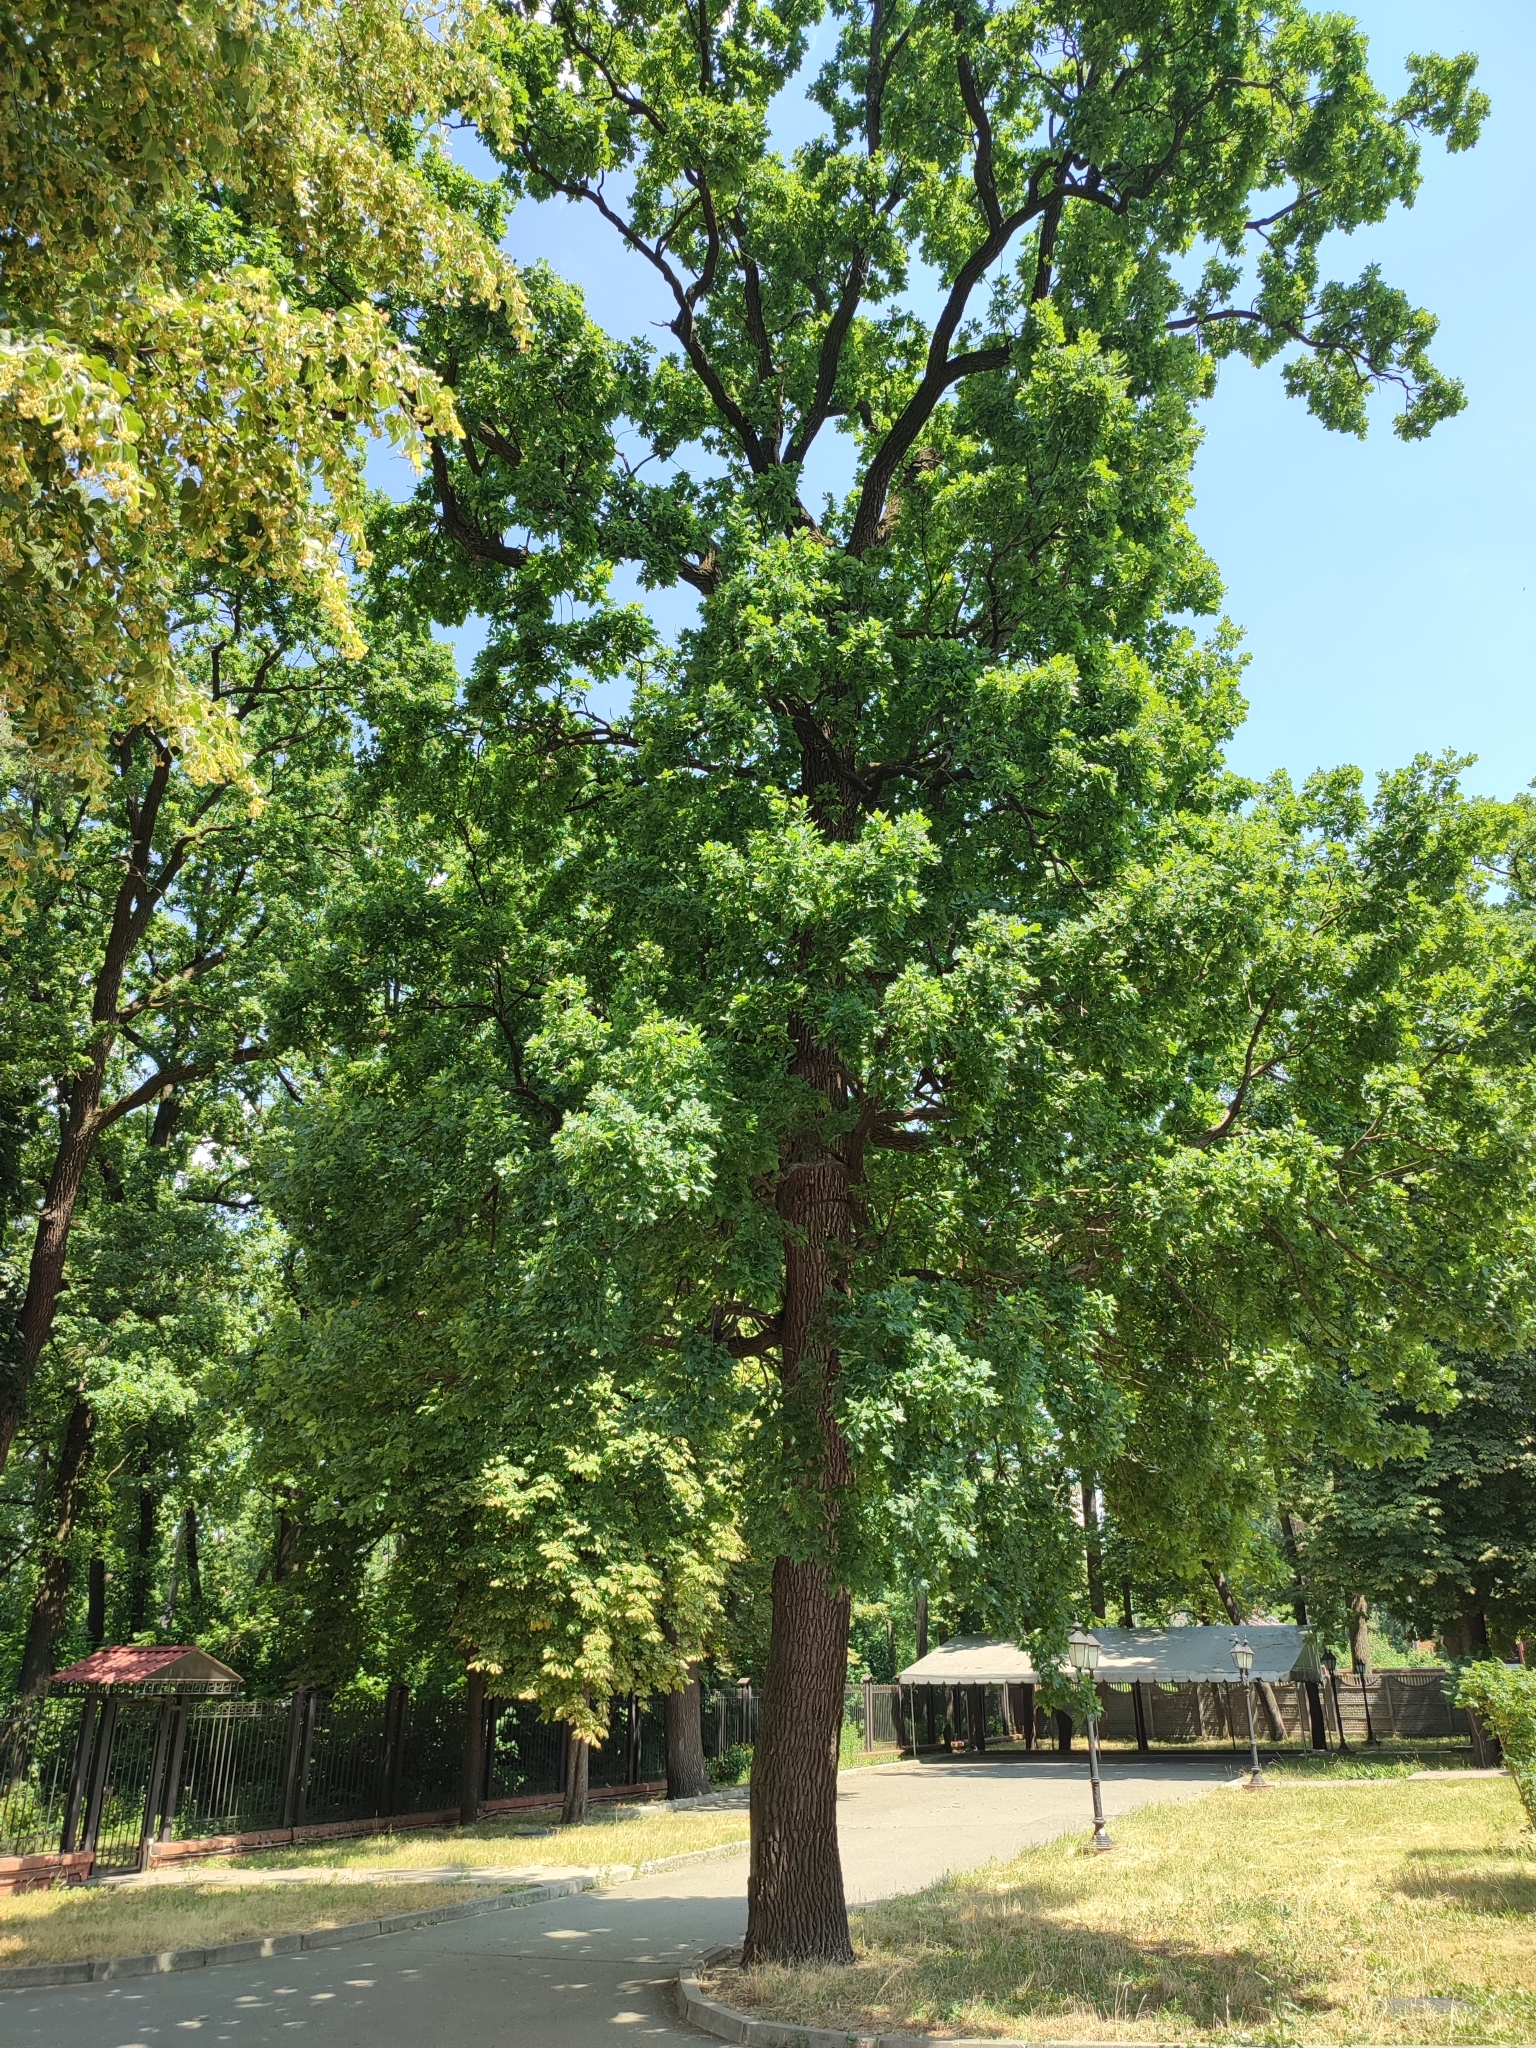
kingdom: Plantae
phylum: Tracheophyta
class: Magnoliopsida
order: Fagales
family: Fagaceae
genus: Quercus
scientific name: Quercus robur
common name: Pedunculate oak
